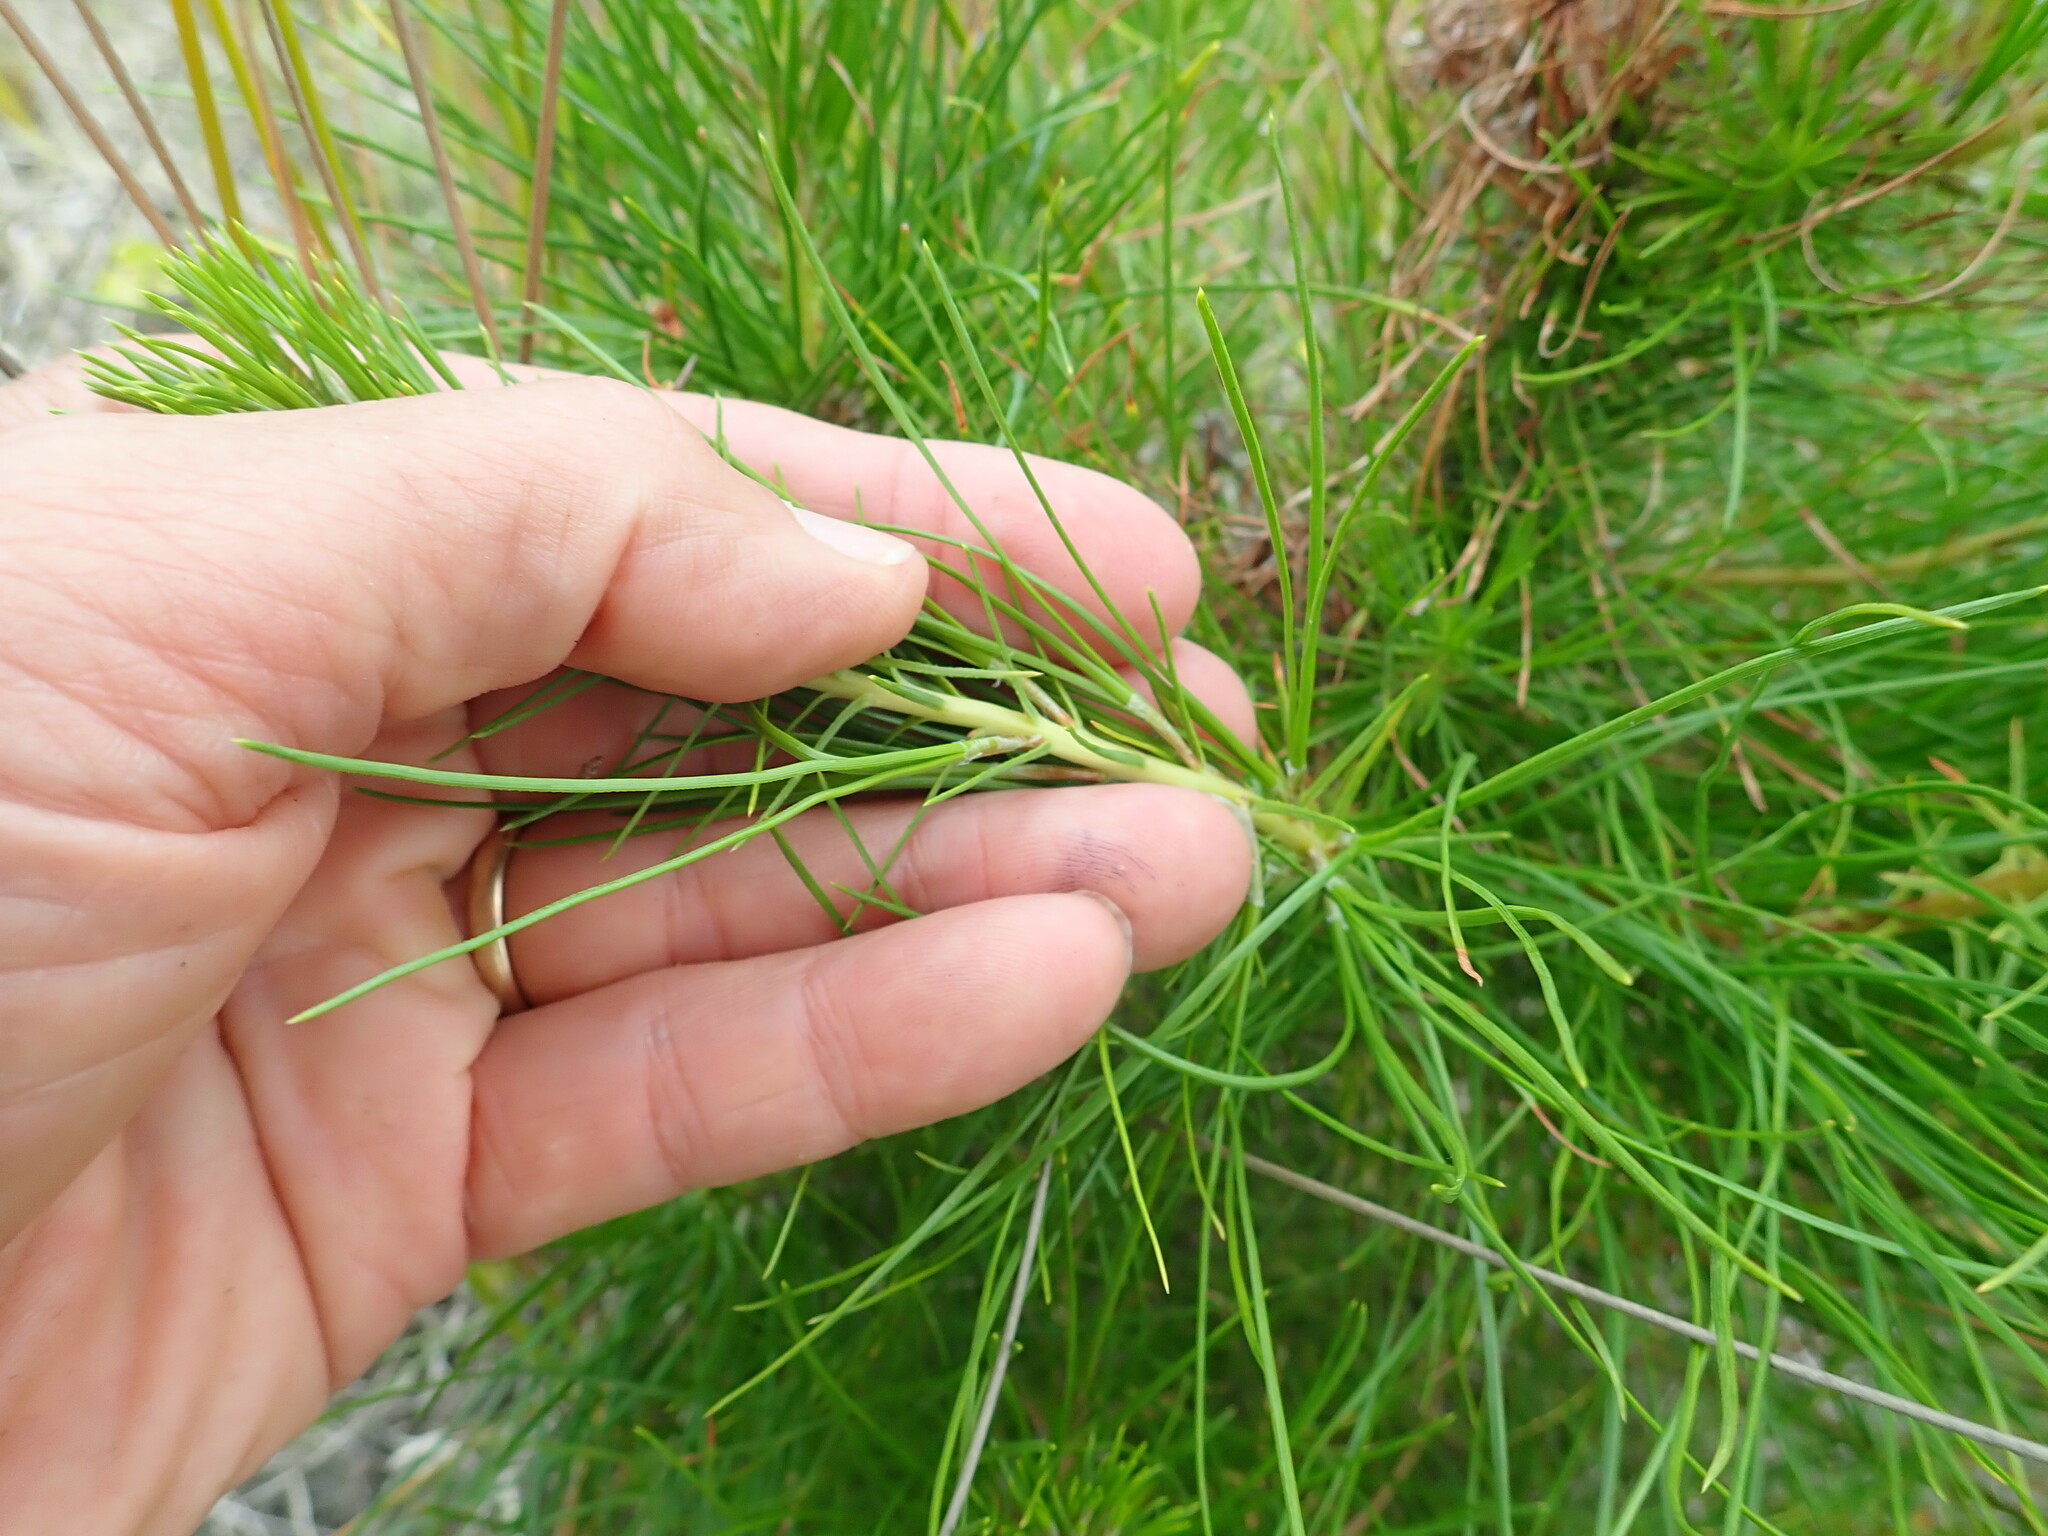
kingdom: Plantae
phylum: Tracheophyta
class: Pinopsida
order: Pinales
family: Pinaceae
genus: Pinus
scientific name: Pinus radiata
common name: Monterey pine
